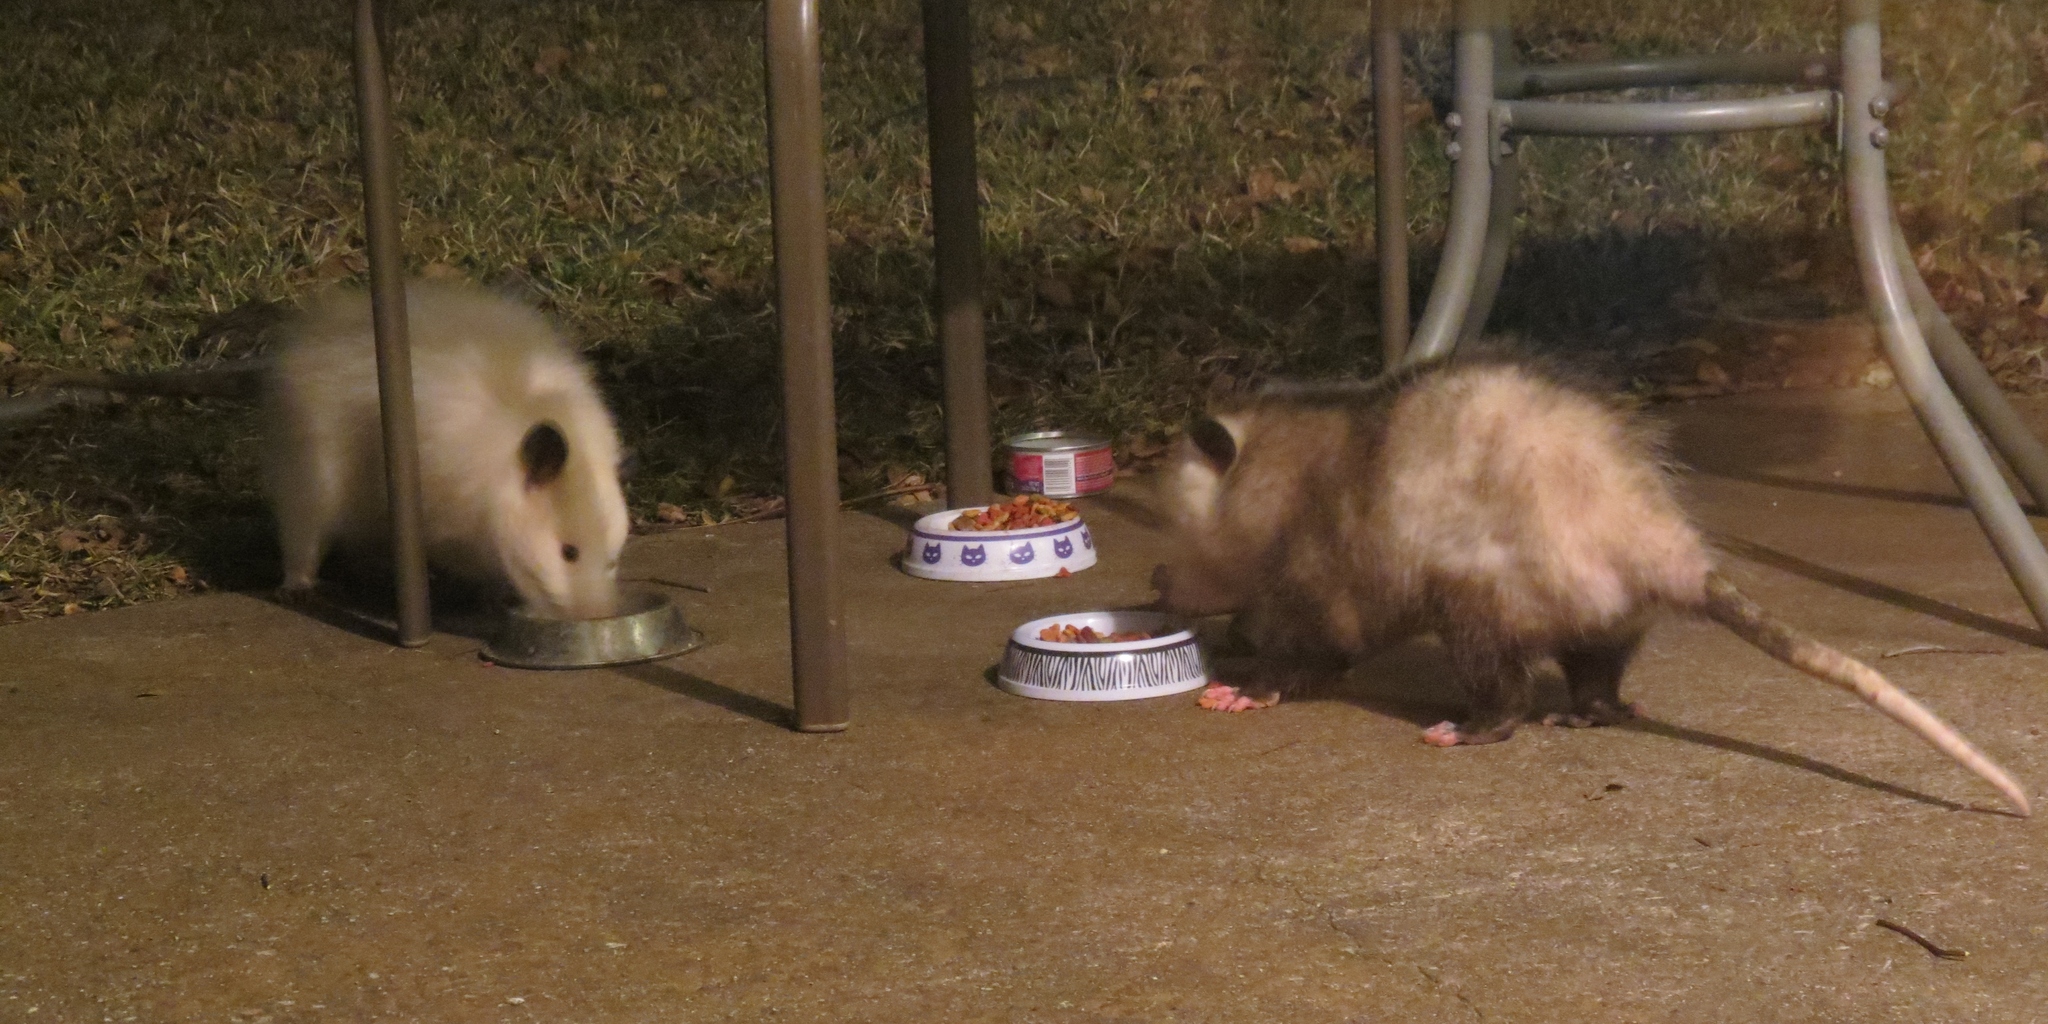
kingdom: Animalia
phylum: Chordata
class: Mammalia
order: Didelphimorphia
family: Didelphidae
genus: Didelphis
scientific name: Didelphis virginiana
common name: Virginia opossum
